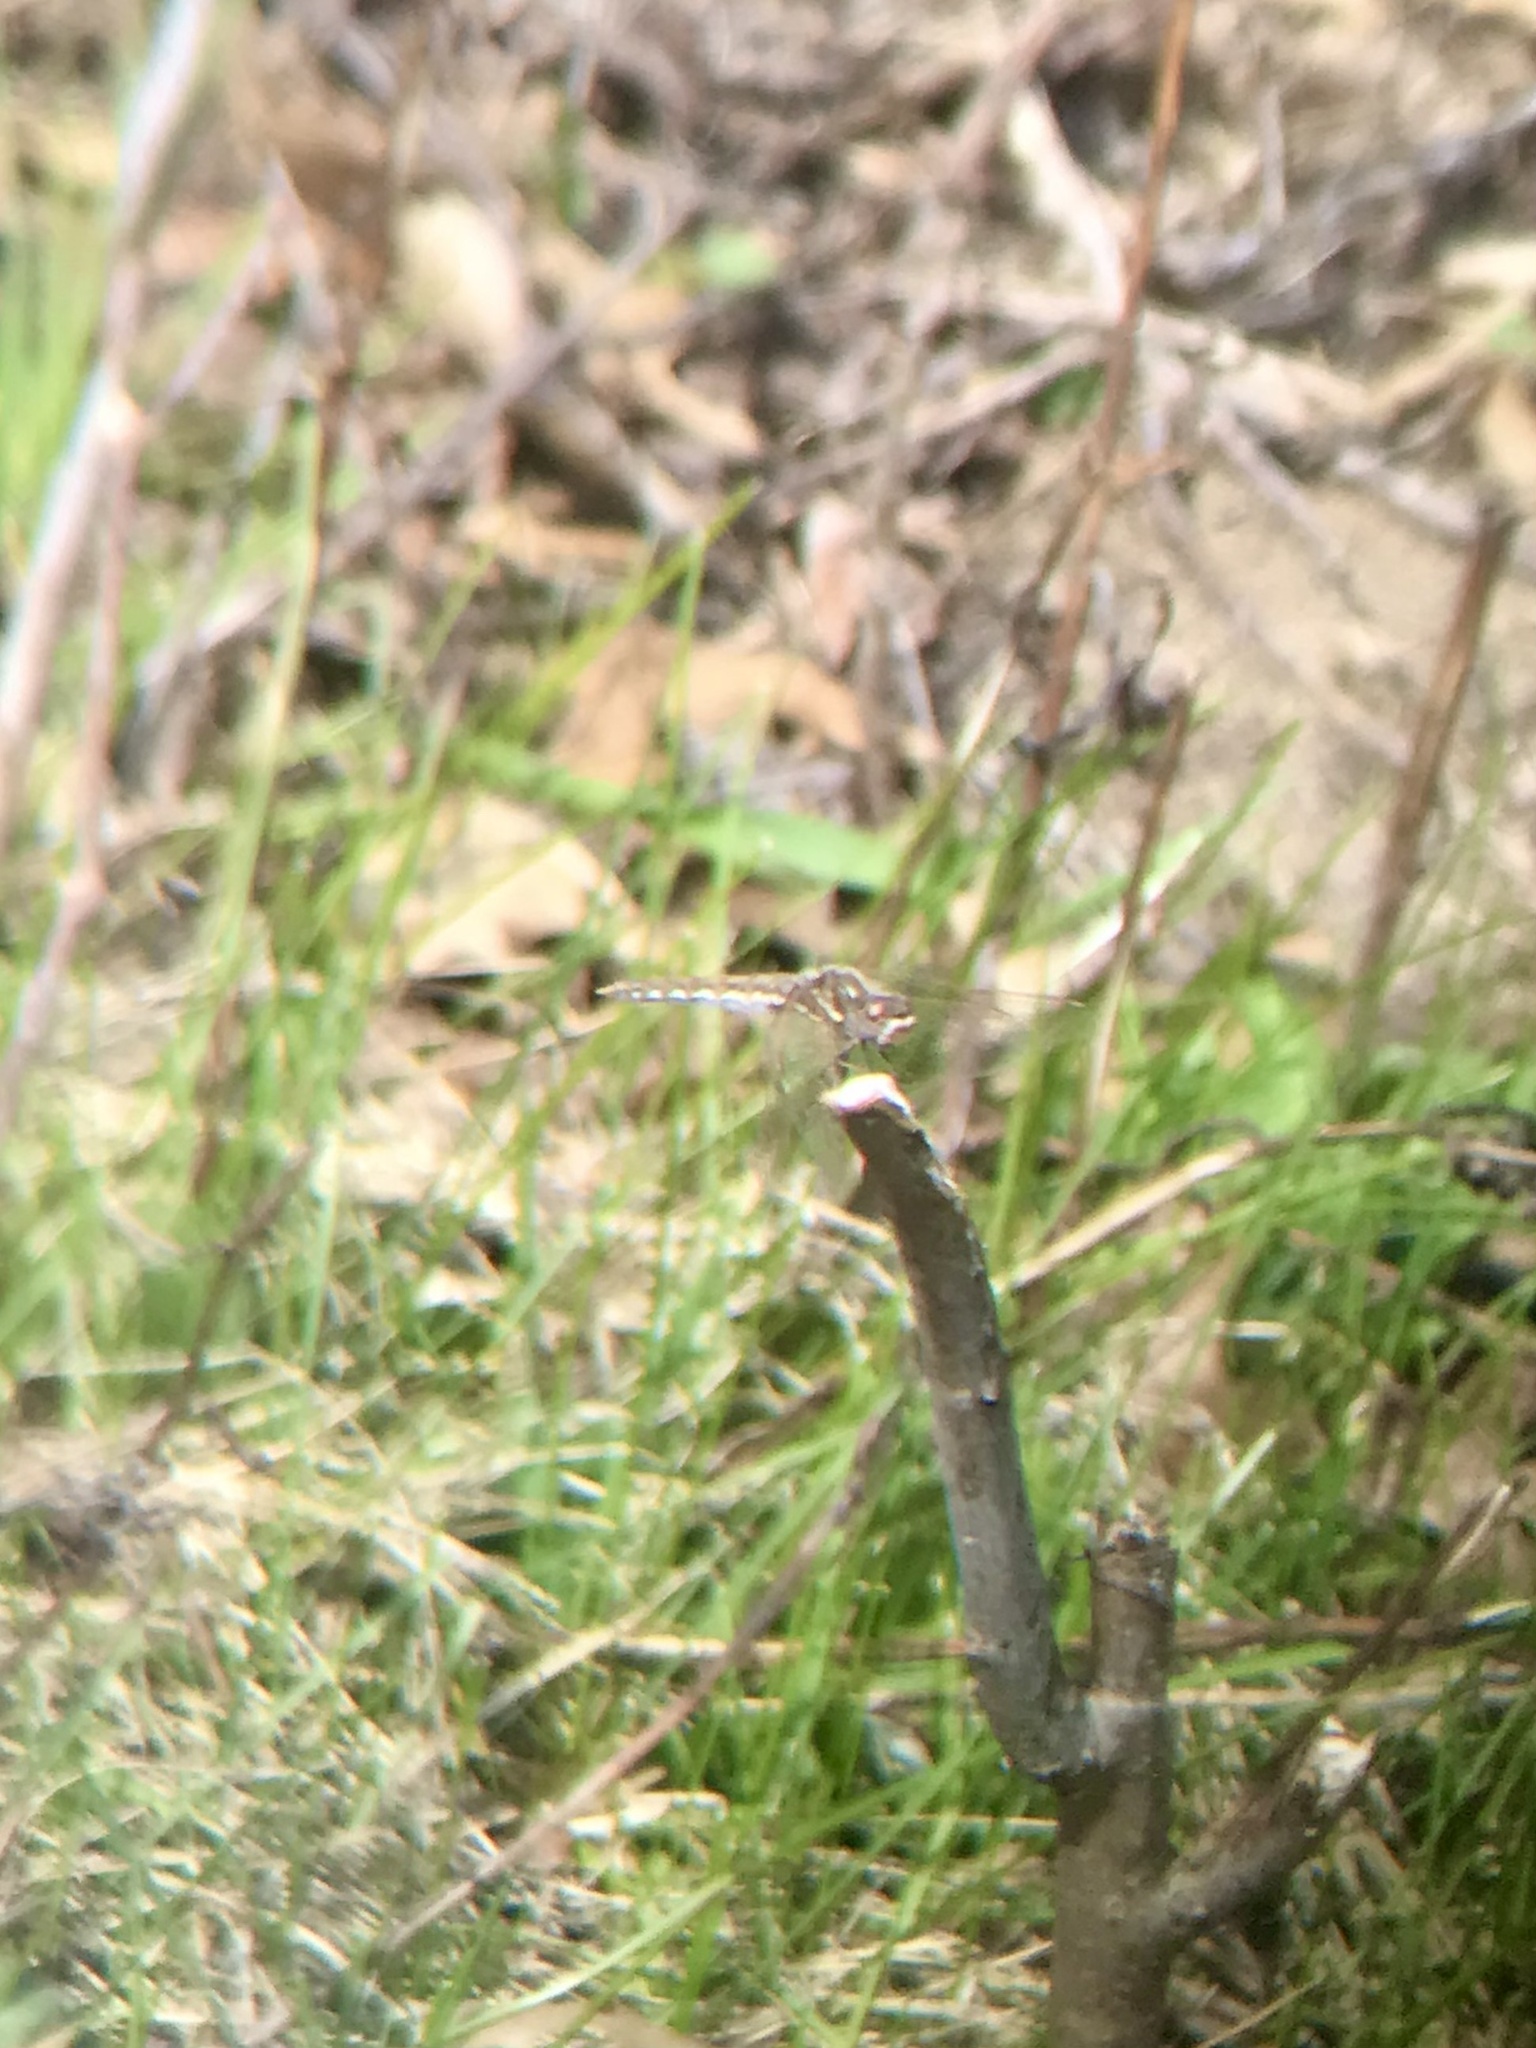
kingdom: Animalia
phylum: Arthropoda
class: Insecta
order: Odonata
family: Libellulidae
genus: Sympetrum
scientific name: Sympetrum corruptum
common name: Variegated meadowhawk
